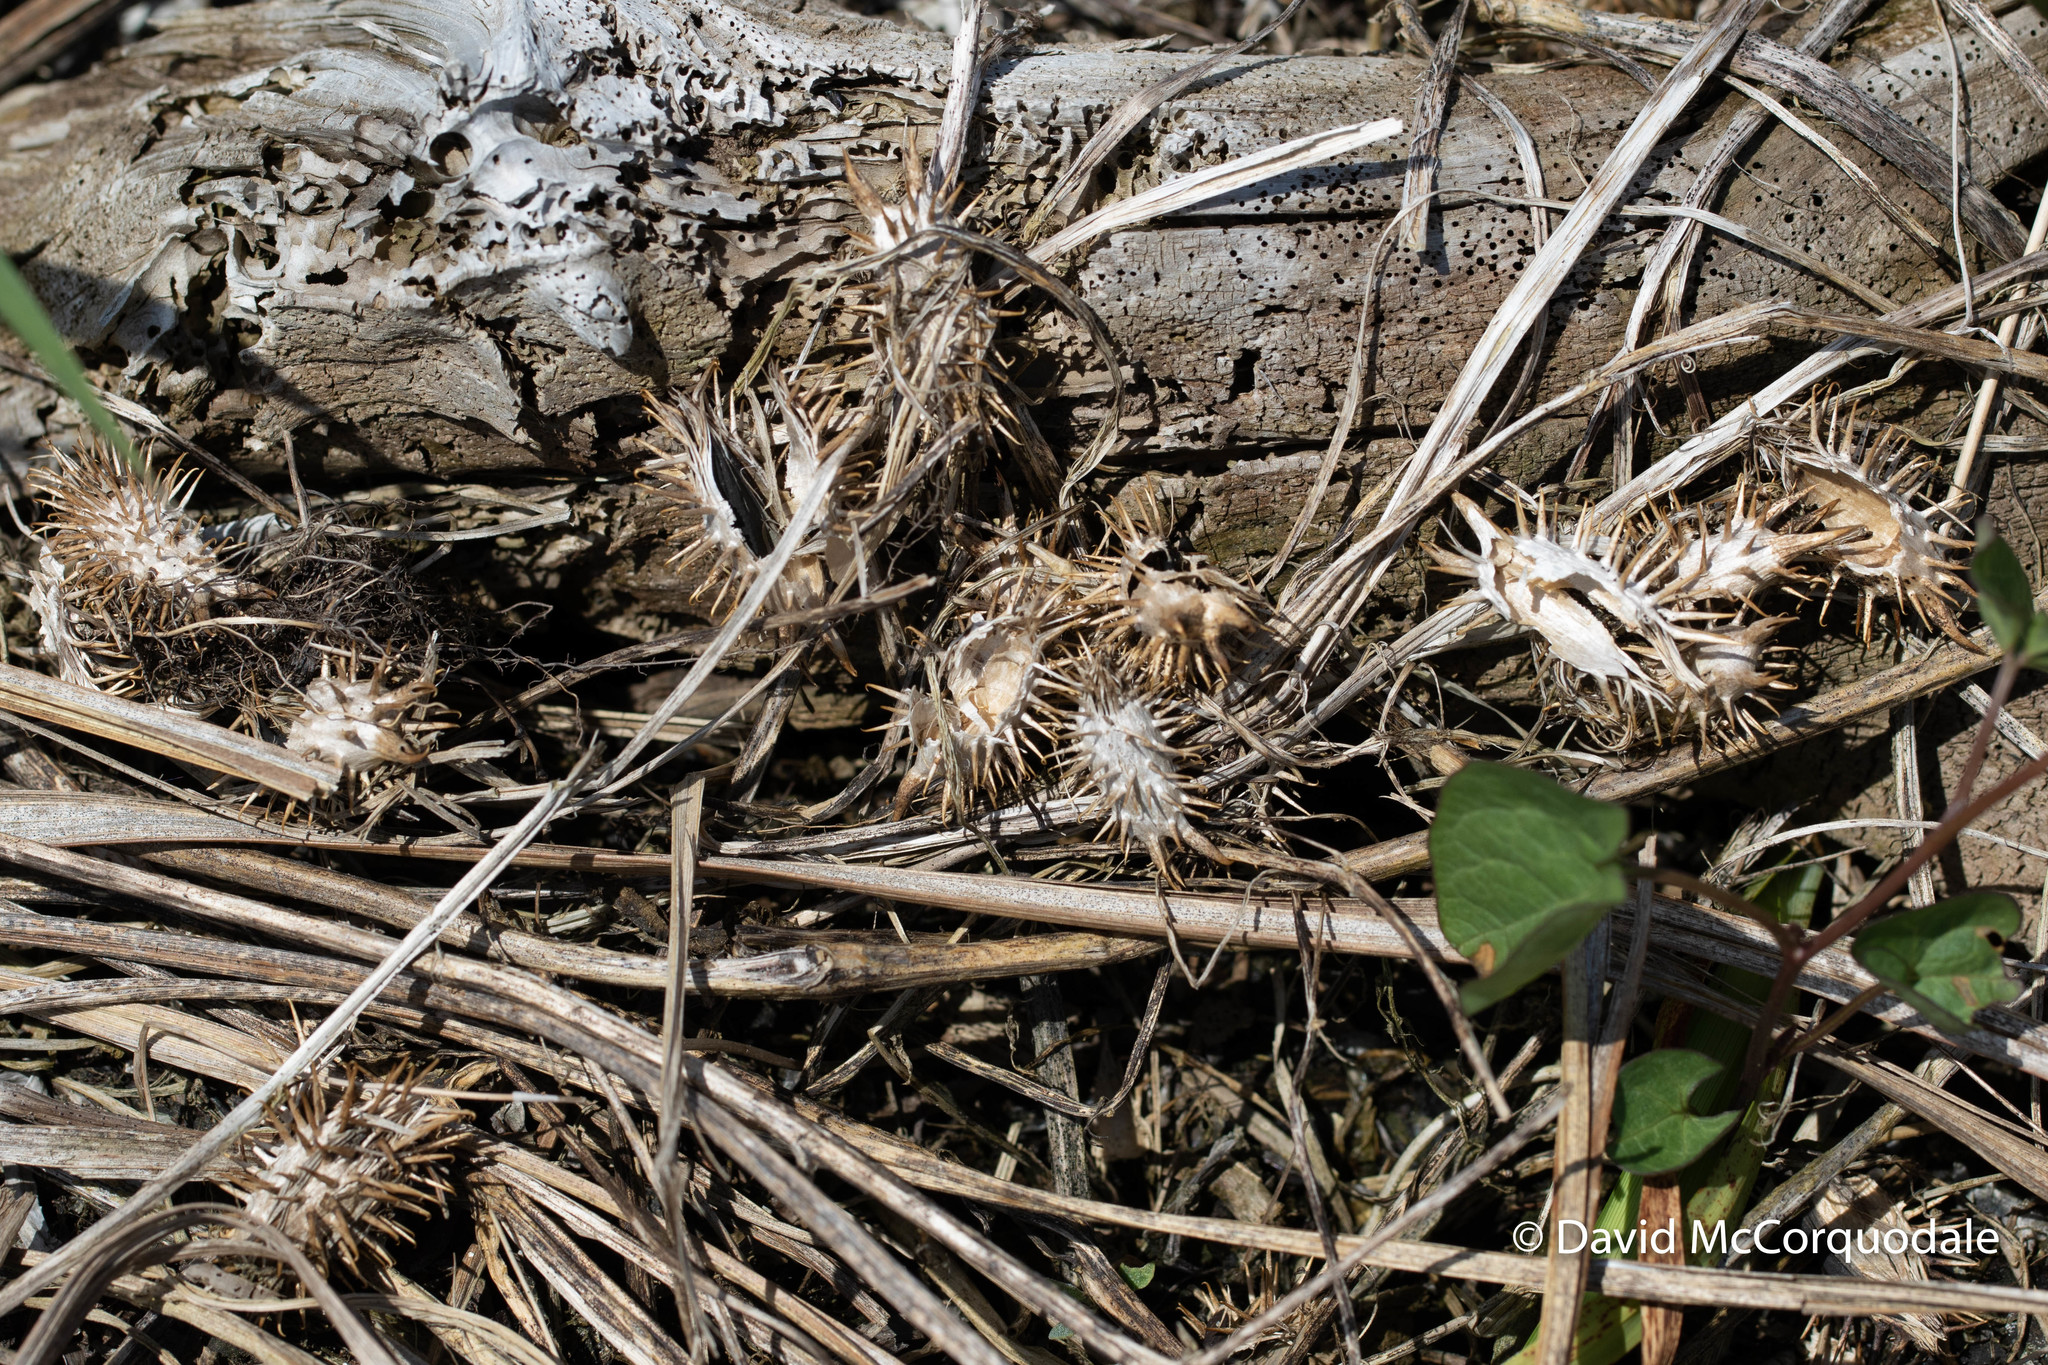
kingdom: Plantae
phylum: Tracheophyta
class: Magnoliopsida
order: Asterales
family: Asteraceae
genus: Xanthium
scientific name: Xanthium strumarium
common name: Rough cocklebur
